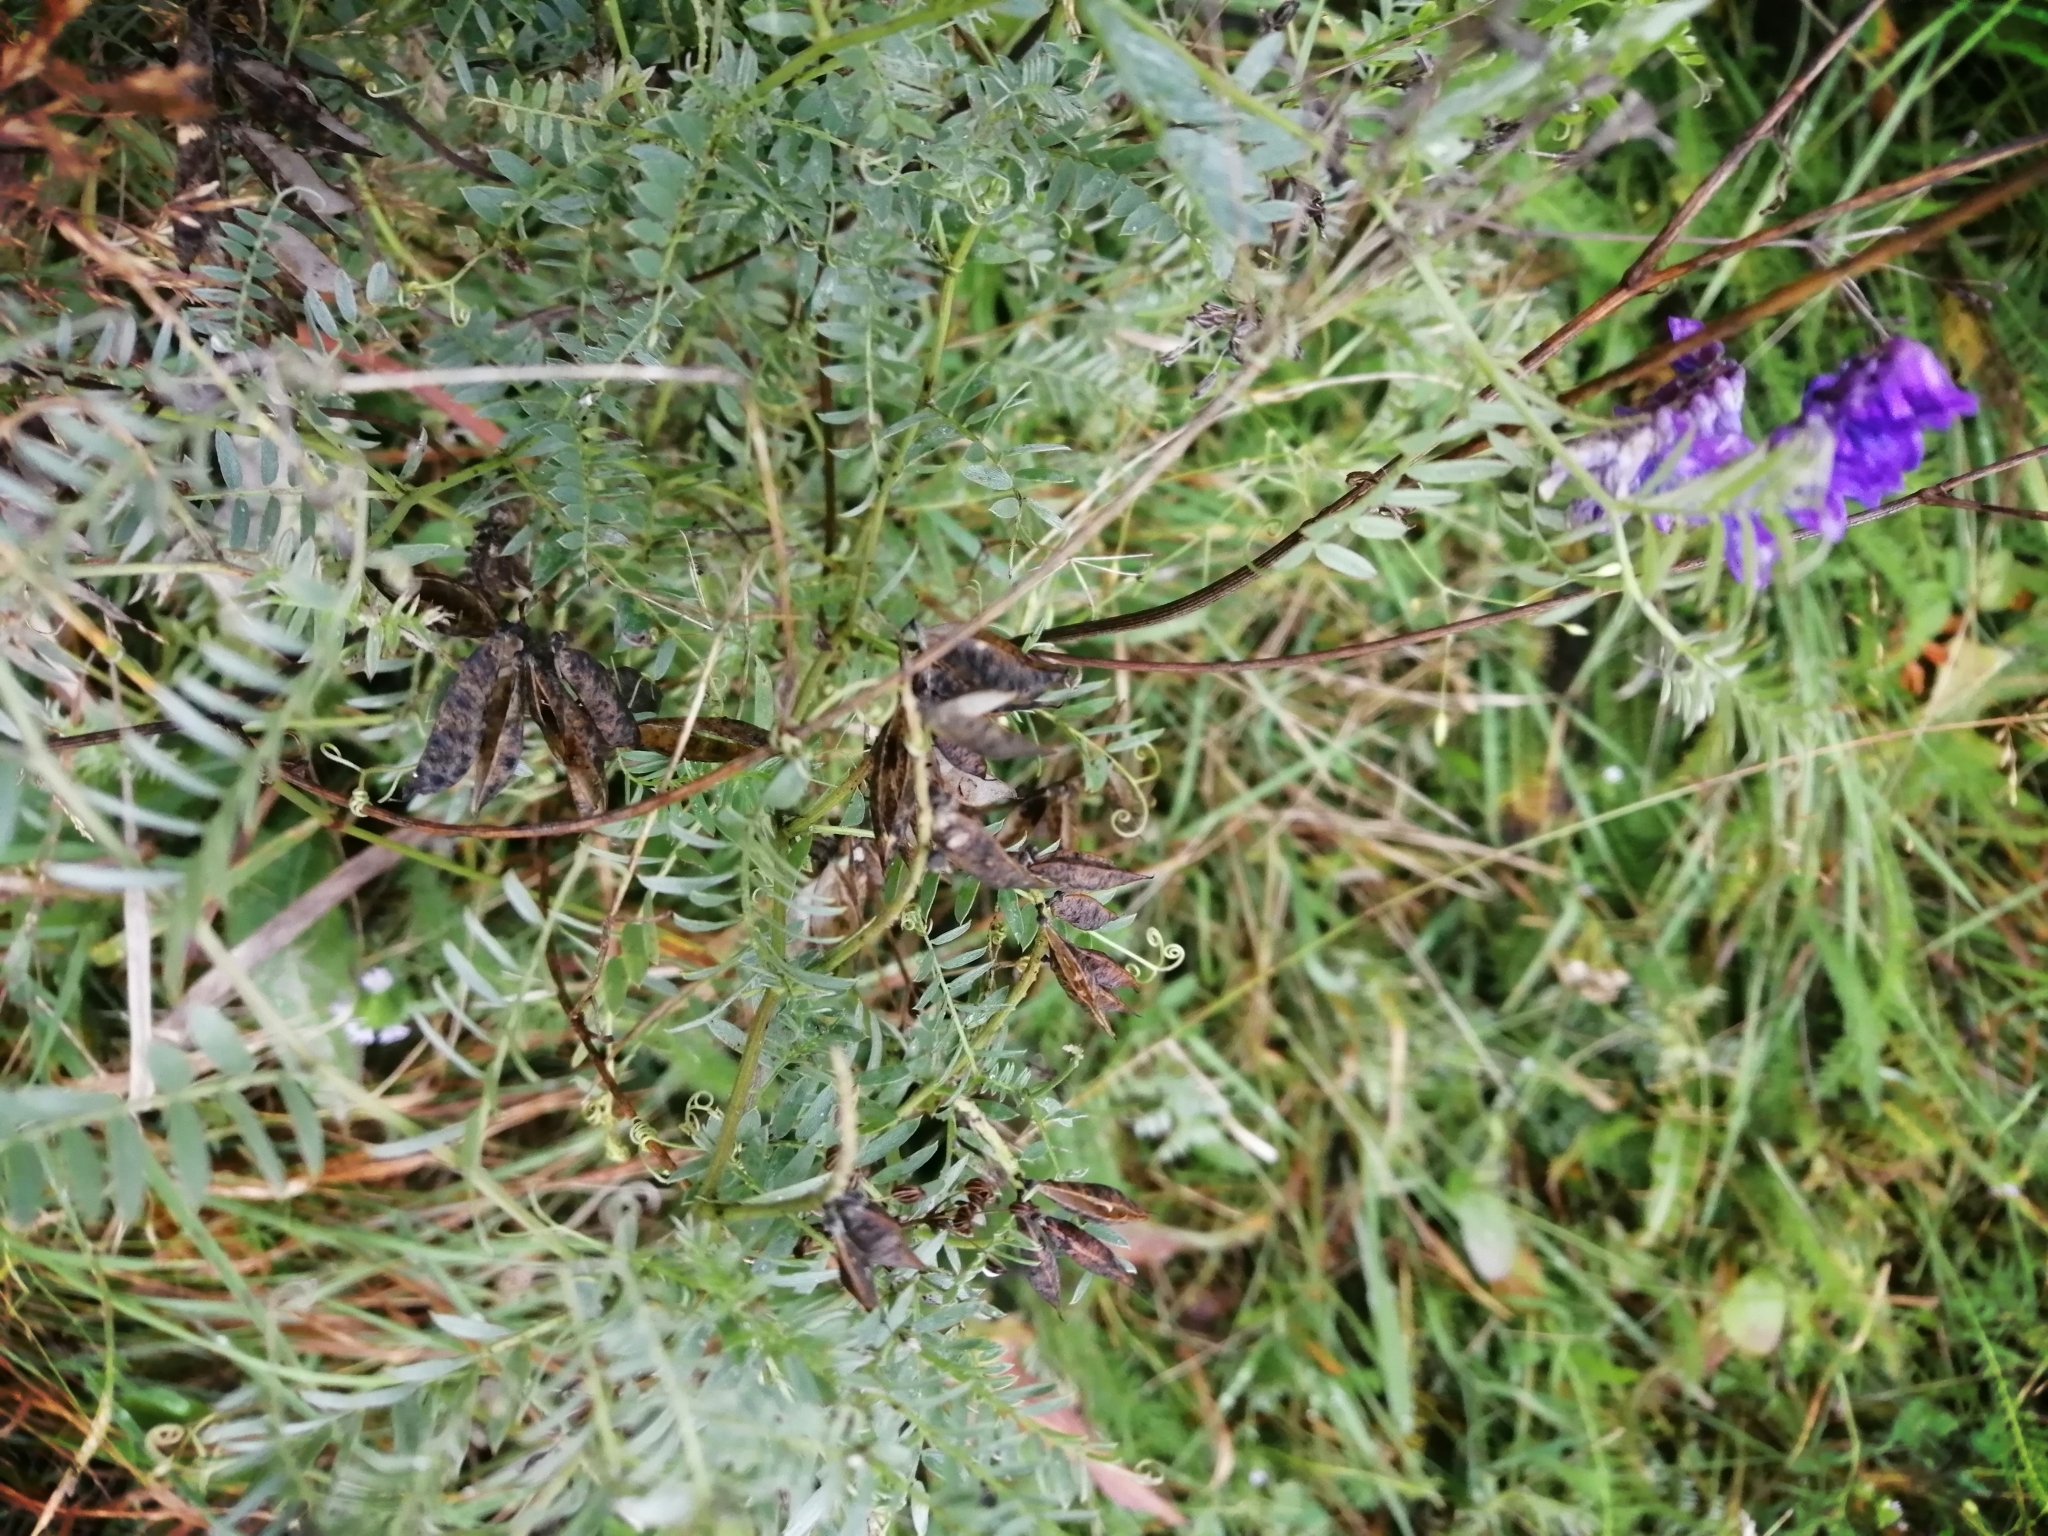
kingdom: Plantae
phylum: Tracheophyta
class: Magnoliopsida
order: Fabales
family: Fabaceae
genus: Vicia
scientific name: Vicia cracca
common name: Bird vetch
